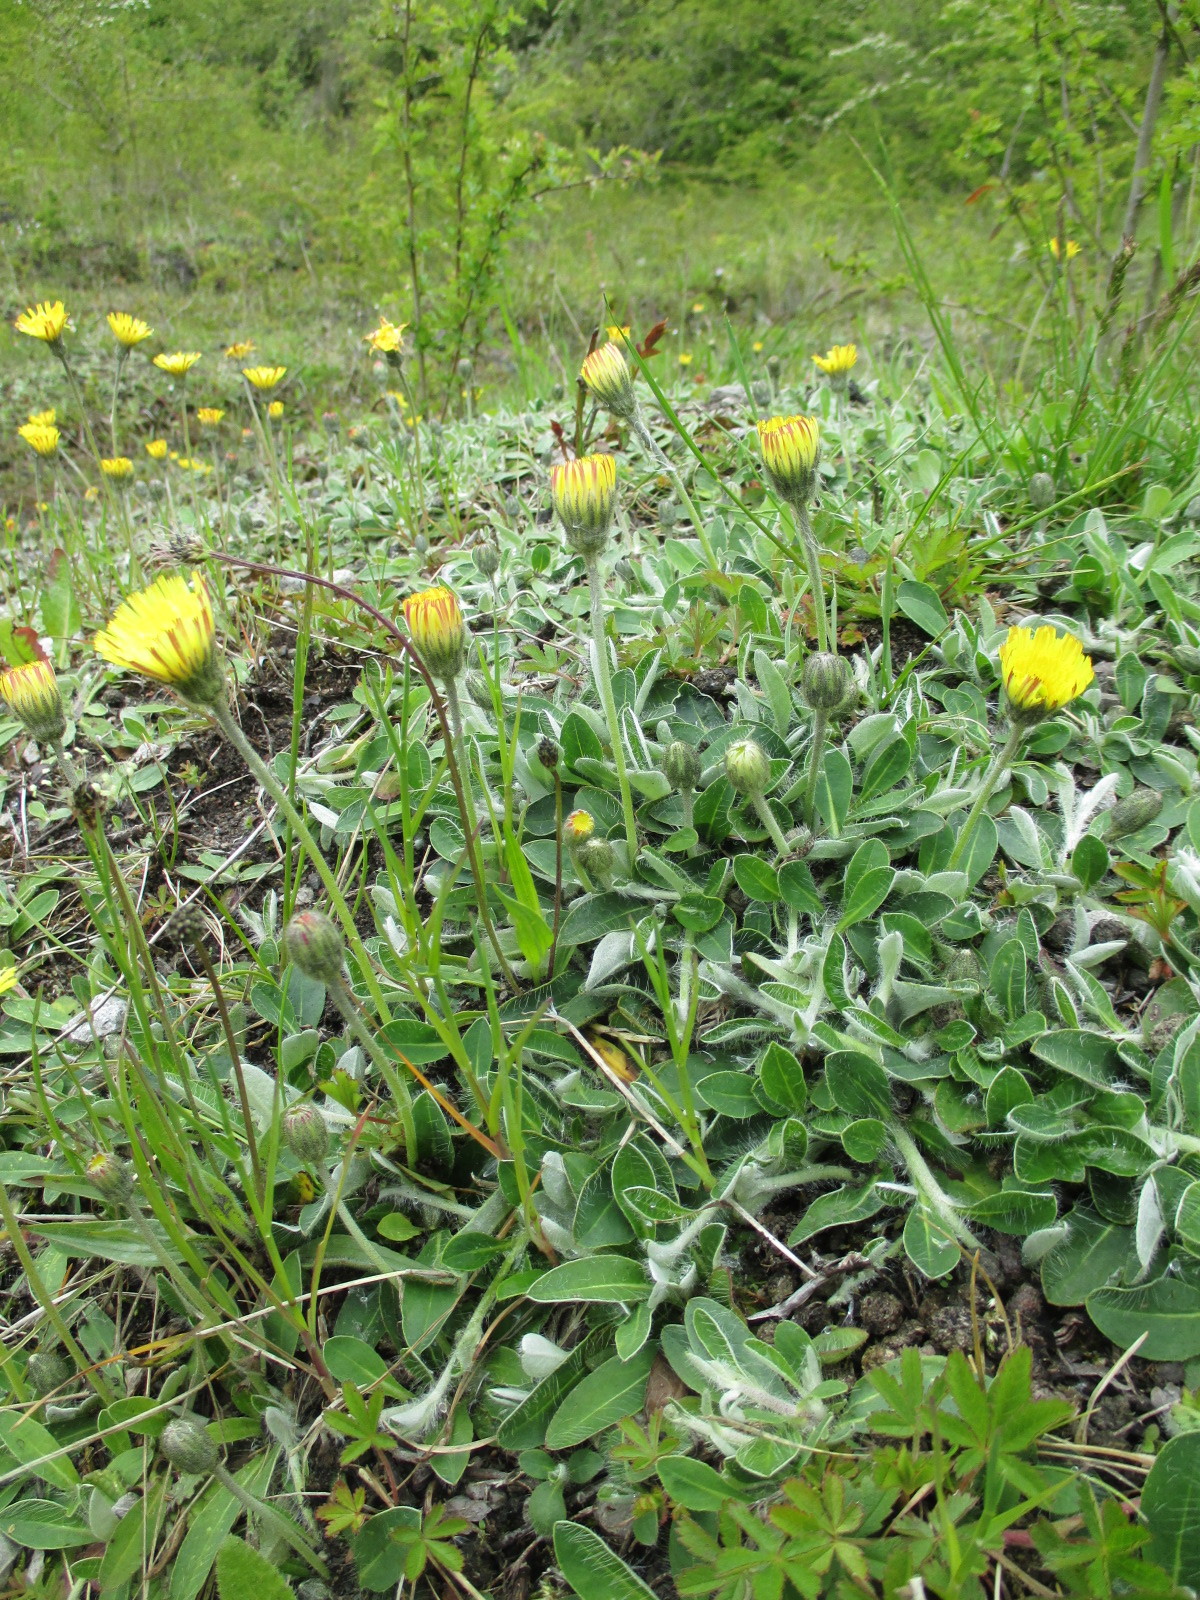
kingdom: Plantae
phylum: Tracheophyta
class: Magnoliopsida
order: Asterales
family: Asteraceae
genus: Pilosella
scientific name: Pilosella officinarum
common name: Mouse-ear hawkweed
